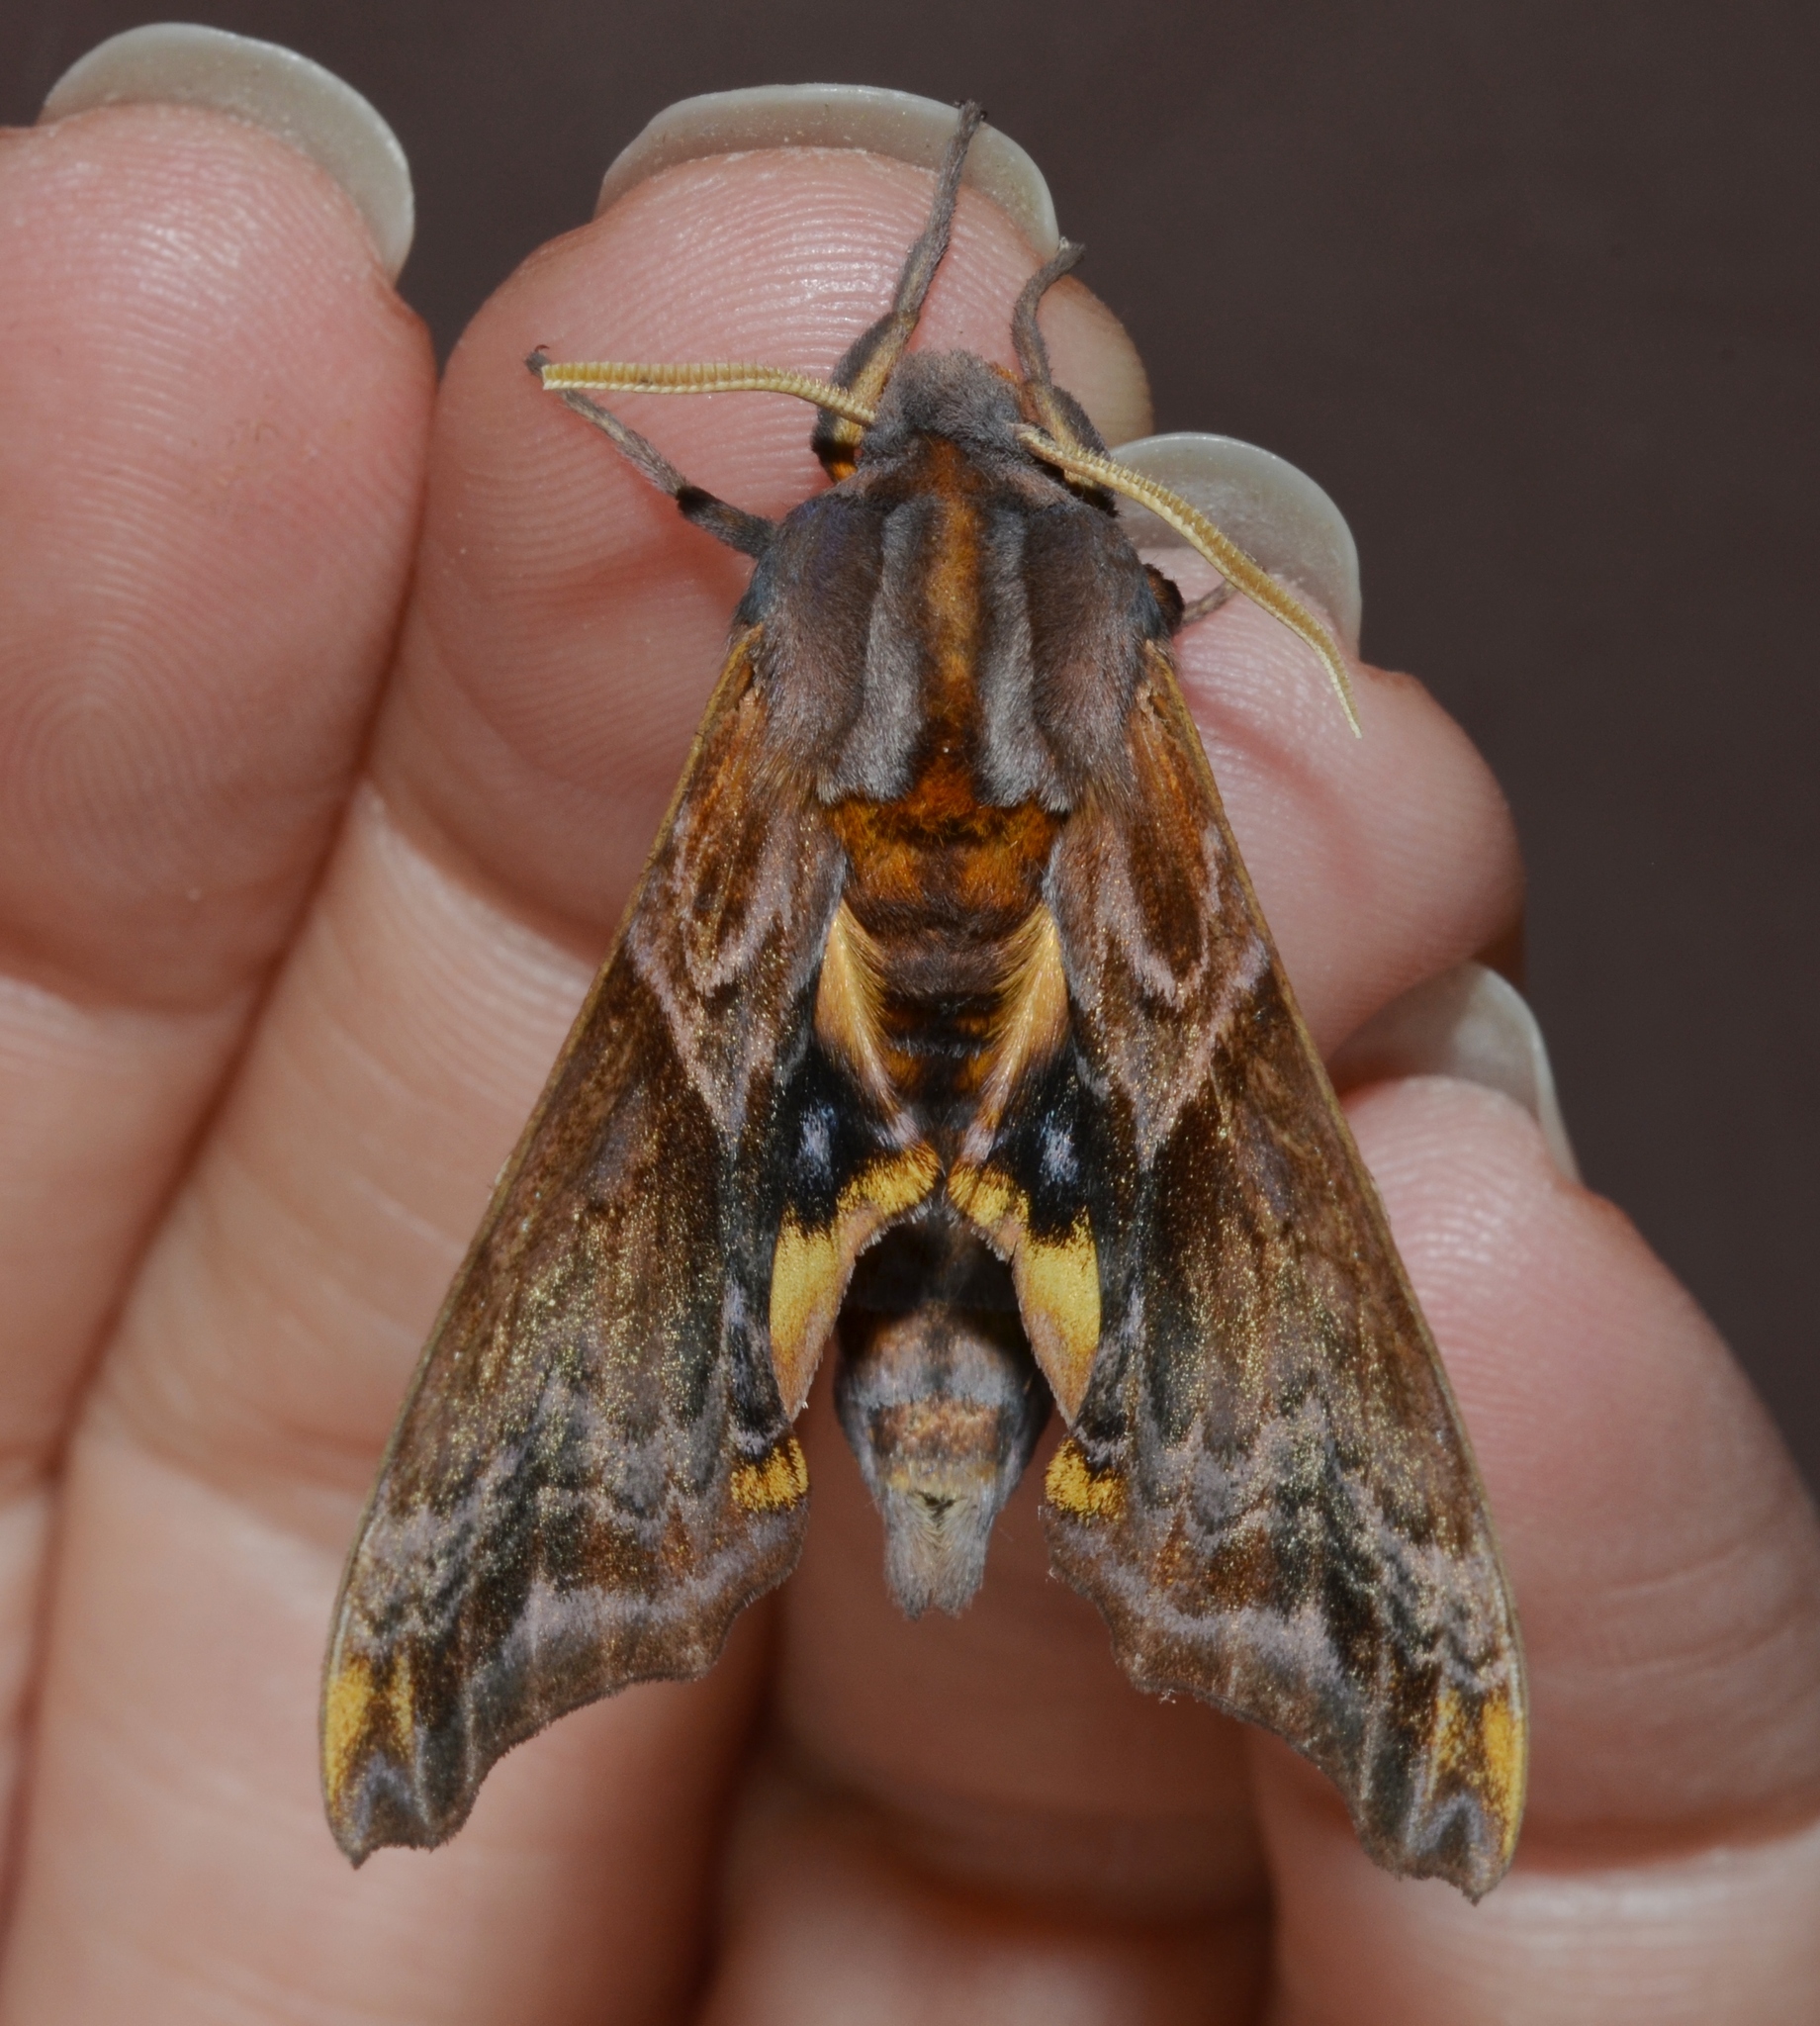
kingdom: Animalia
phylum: Arthropoda
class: Insecta
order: Lepidoptera
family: Sphingidae
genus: Paonias
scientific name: Paonias myops
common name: Small-eyed sphinx
